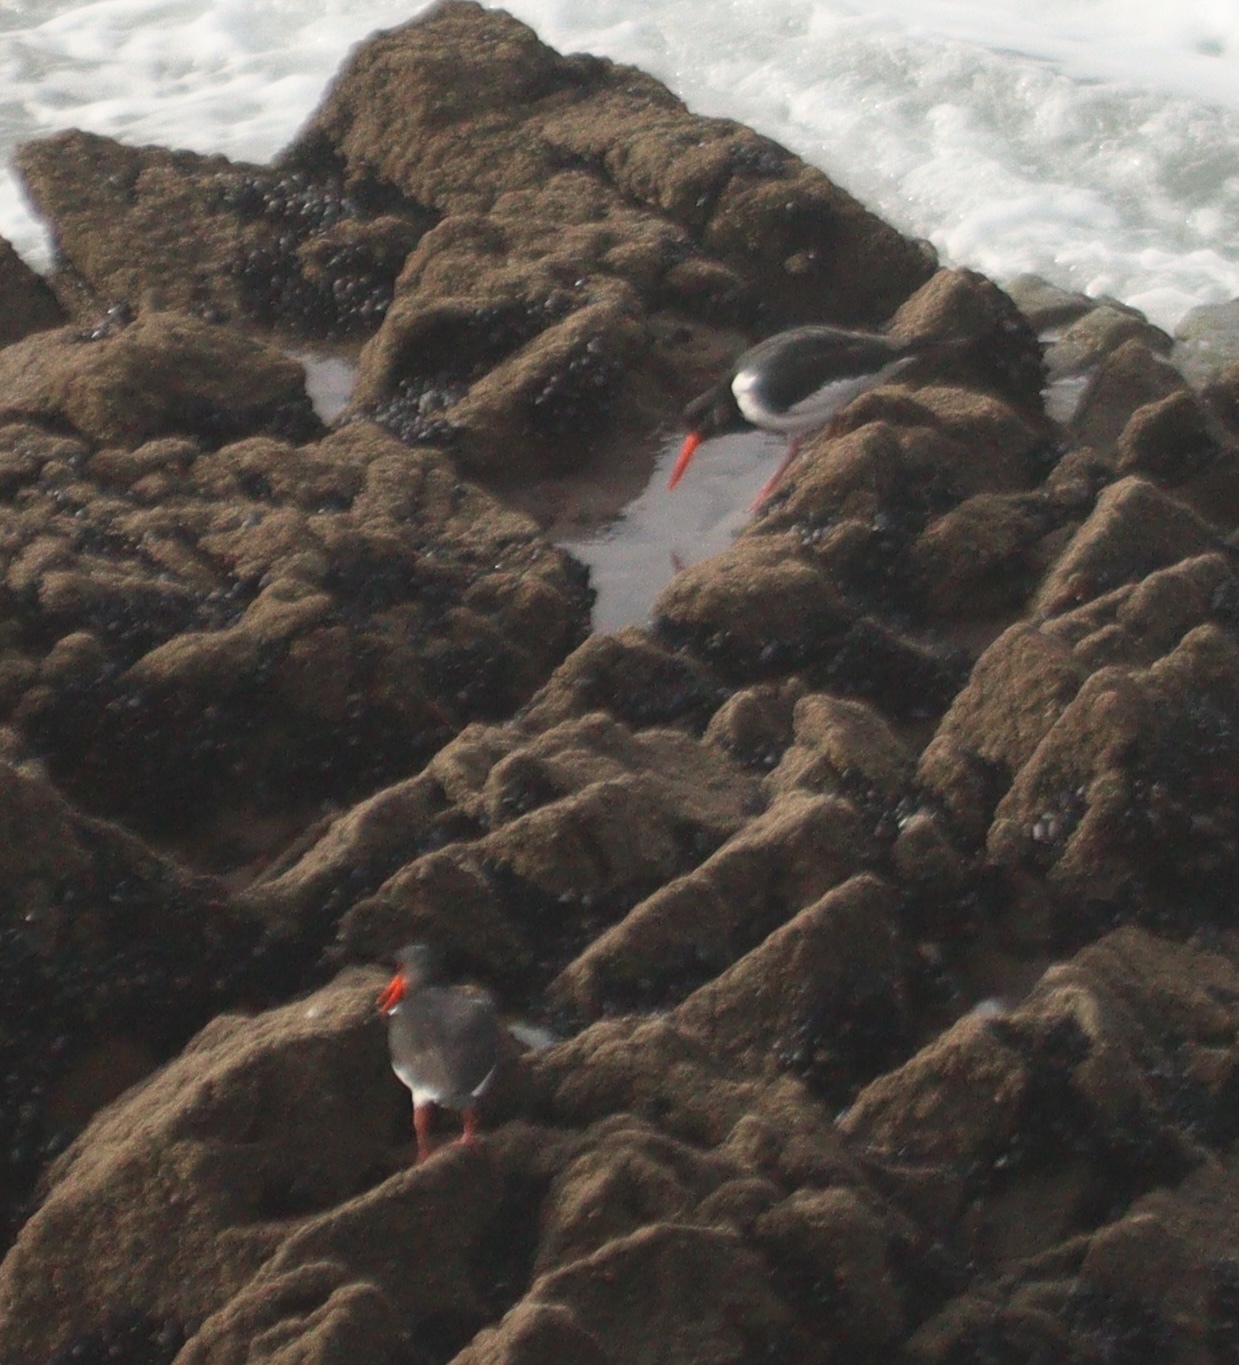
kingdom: Animalia
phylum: Chordata
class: Aves
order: Charadriiformes
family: Haematopodidae
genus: Haematopus
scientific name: Haematopus ostralegus
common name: Eurasian oystercatcher
